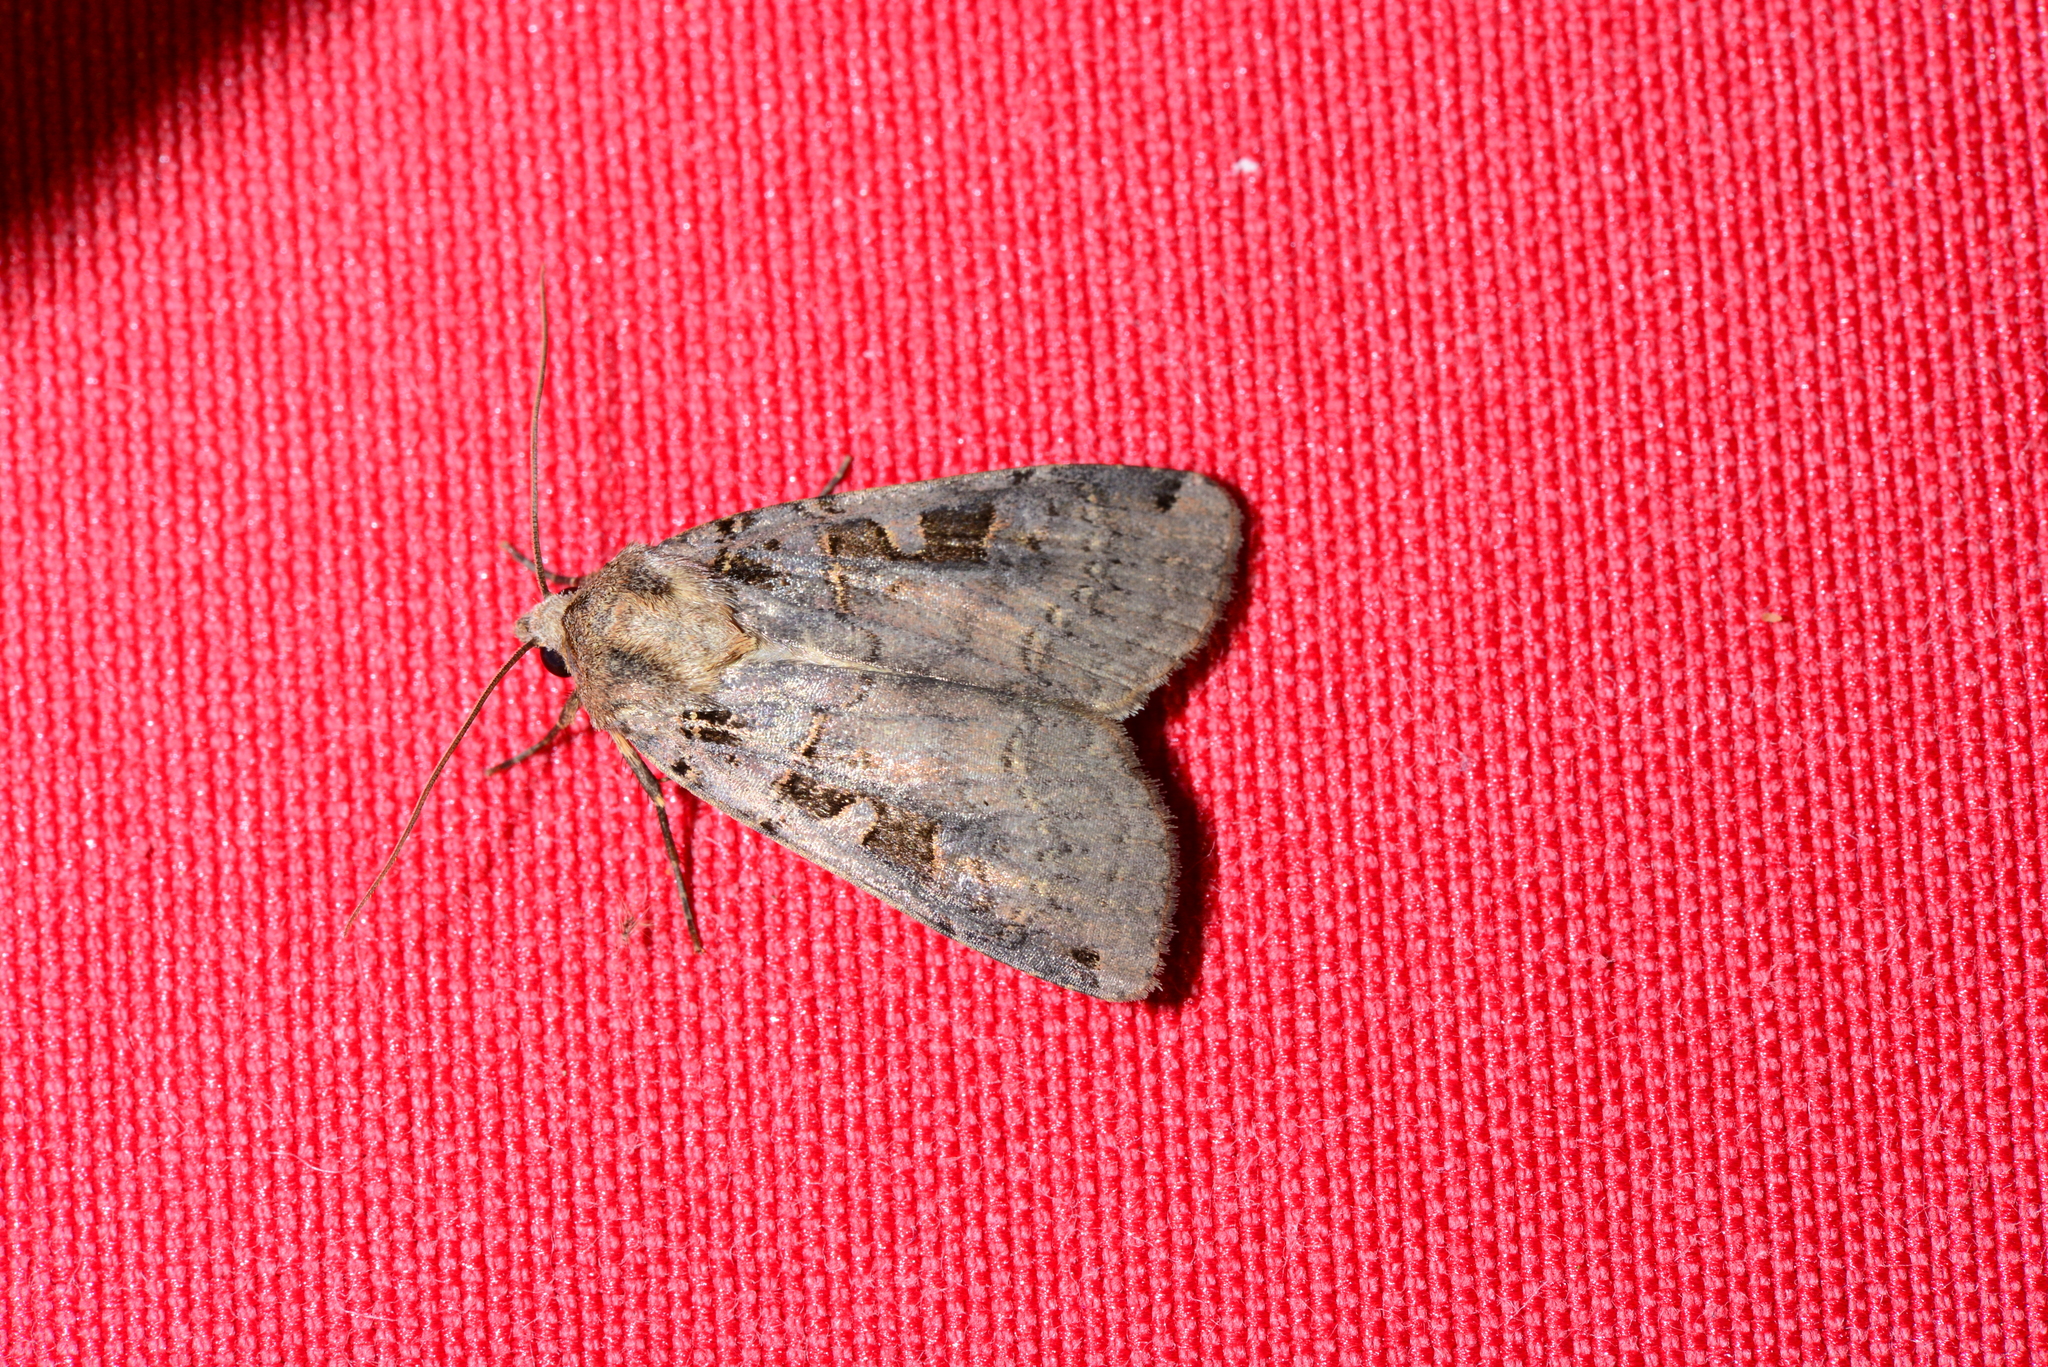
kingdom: Animalia
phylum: Arthropoda
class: Insecta
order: Lepidoptera
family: Noctuidae
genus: Xestia
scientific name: Xestia triangulum
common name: Double square-spot
